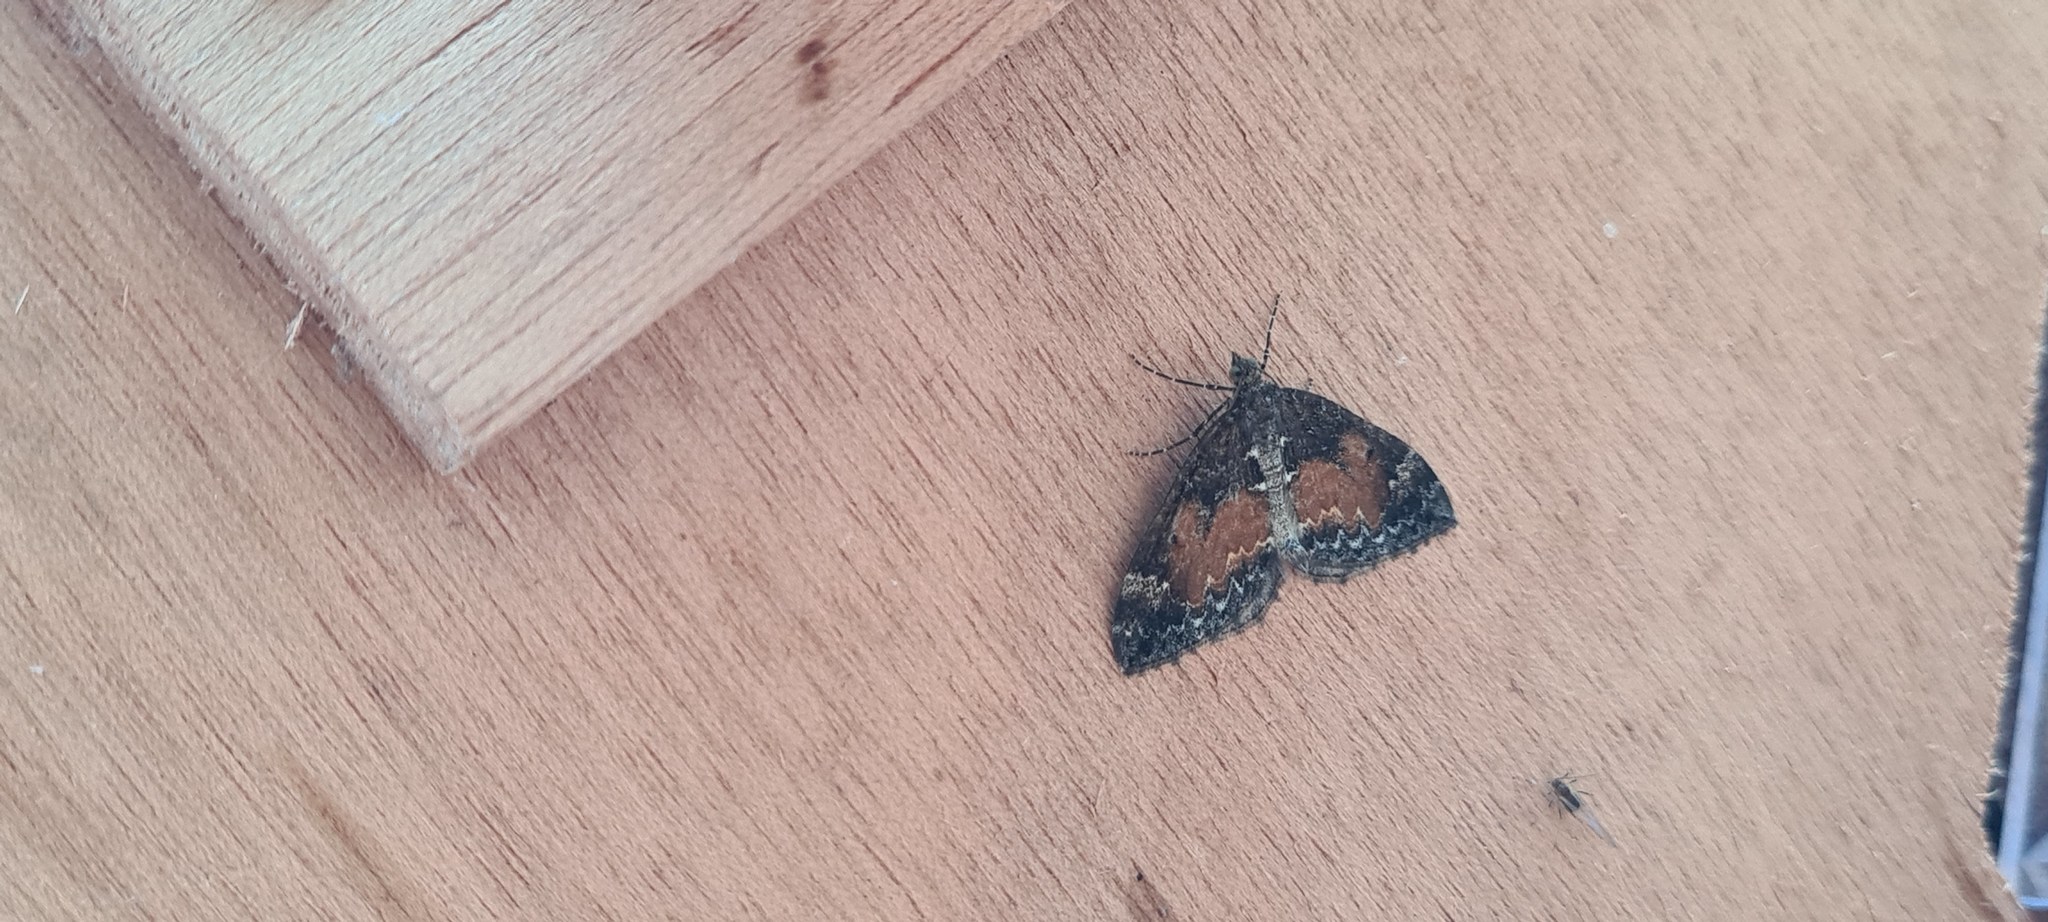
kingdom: Animalia
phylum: Arthropoda
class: Insecta
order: Lepidoptera
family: Geometridae
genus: Dysstroma
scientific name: Dysstroma truncata
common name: Common marbled carpet
